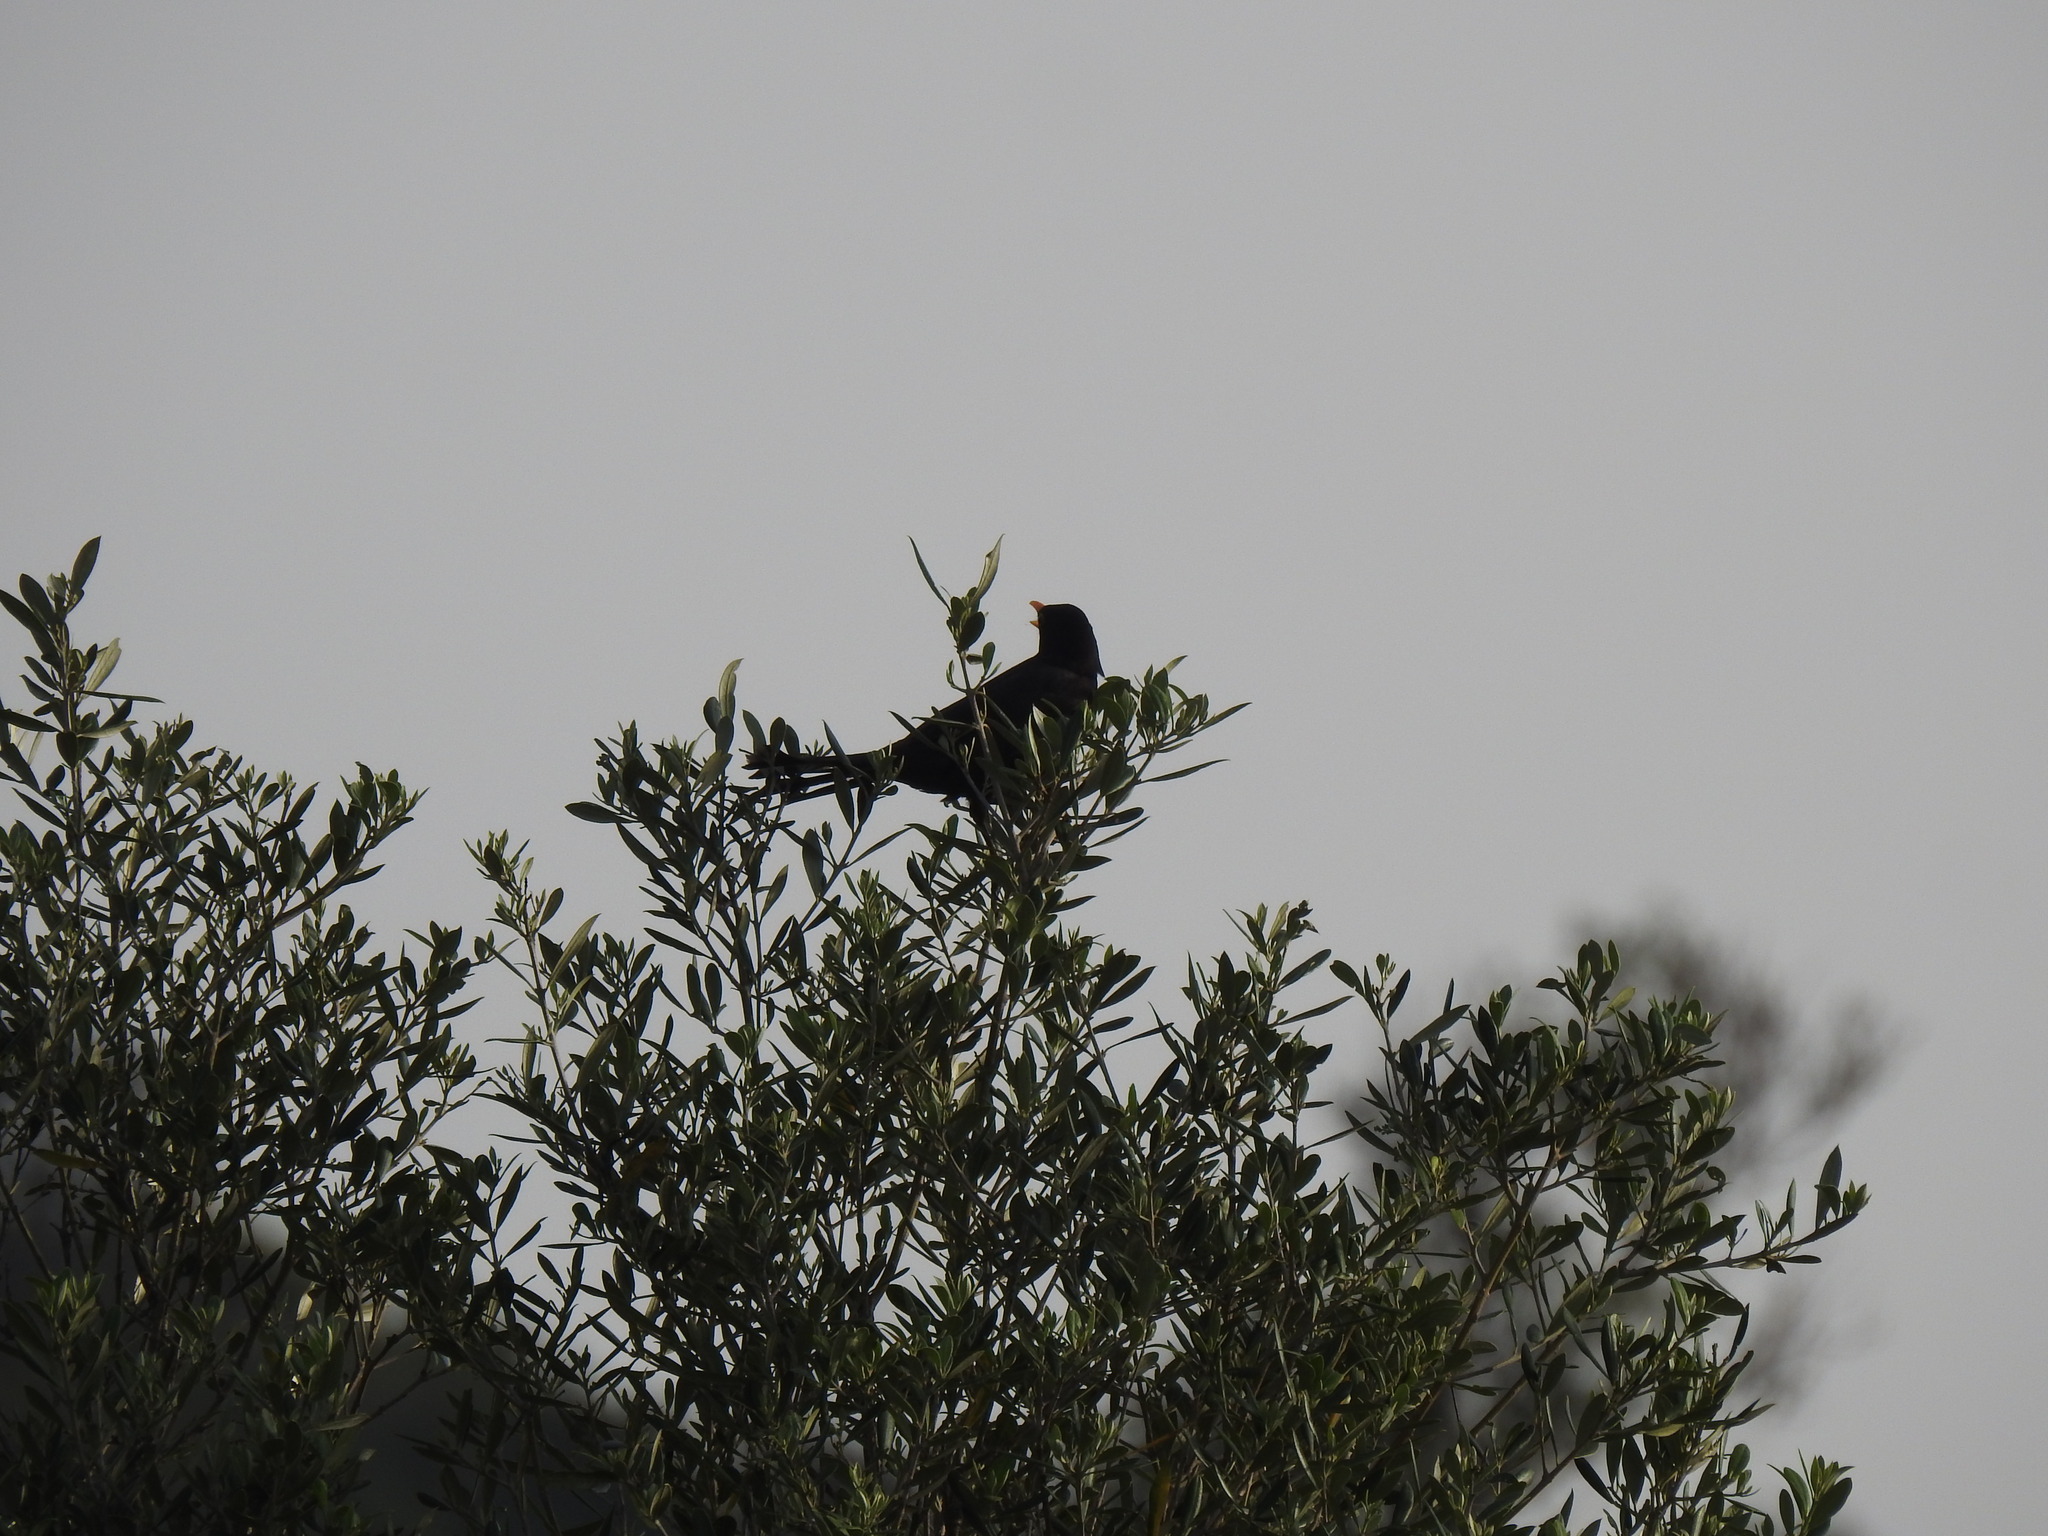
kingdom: Animalia
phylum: Chordata
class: Aves
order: Passeriformes
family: Turdidae
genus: Turdus
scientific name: Turdus merula
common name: Common blackbird
